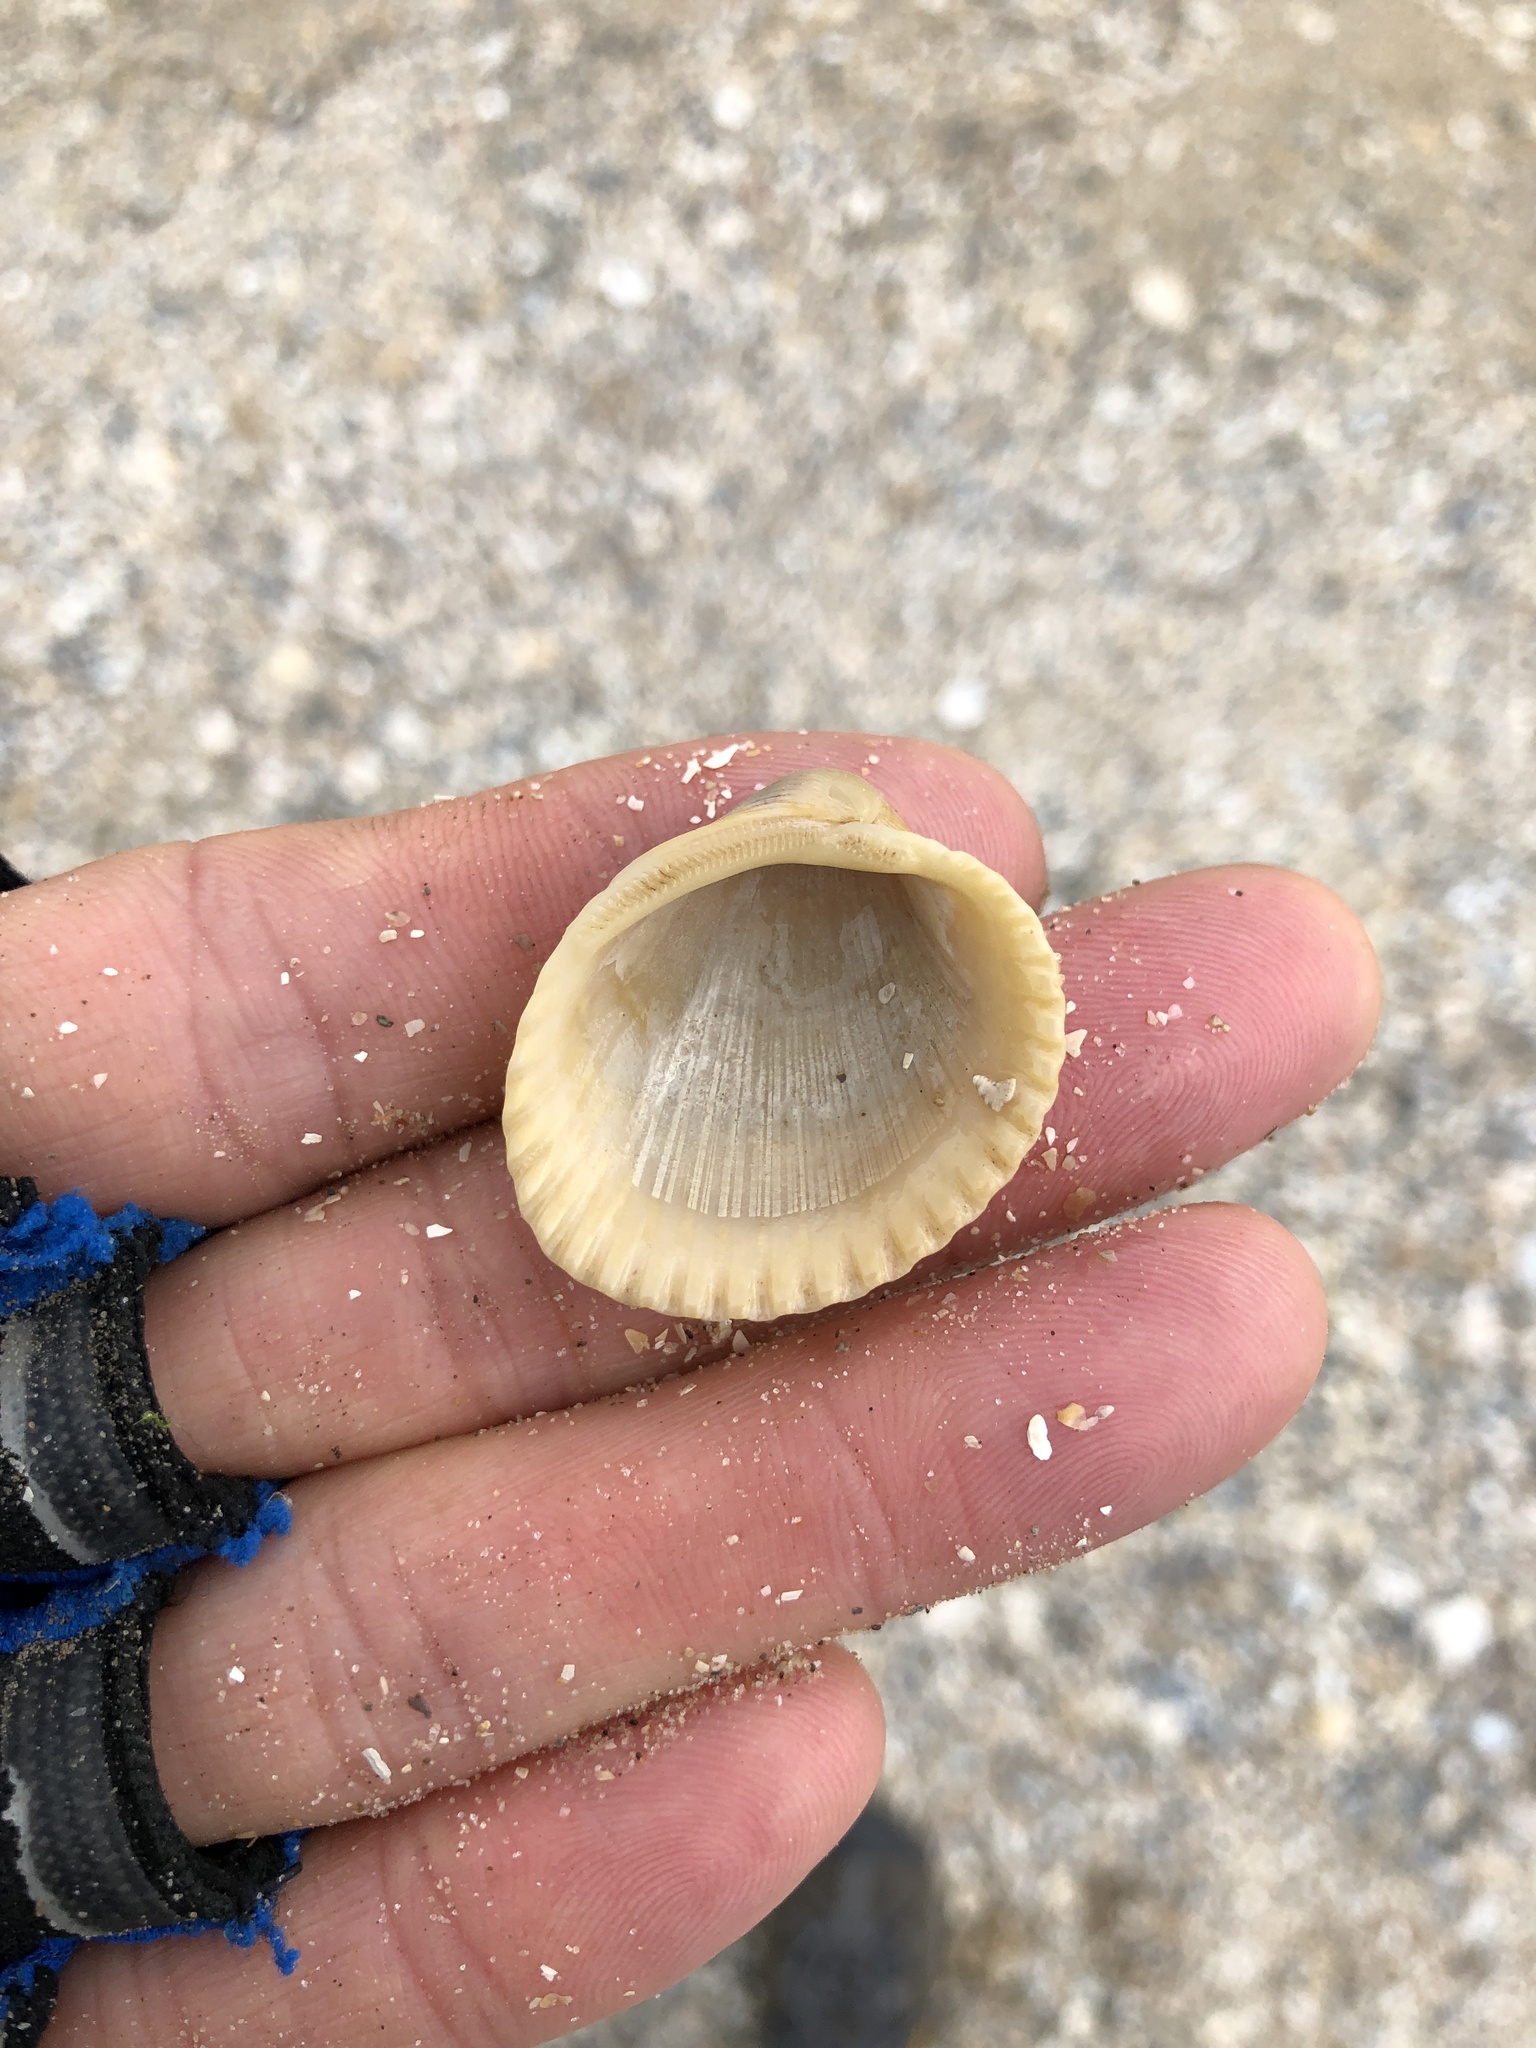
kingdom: Animalia
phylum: Mollusca
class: Bivalvia
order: Arcida
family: Arcidae
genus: Lunarca
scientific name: Lunarca ovalis
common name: Blood ark
